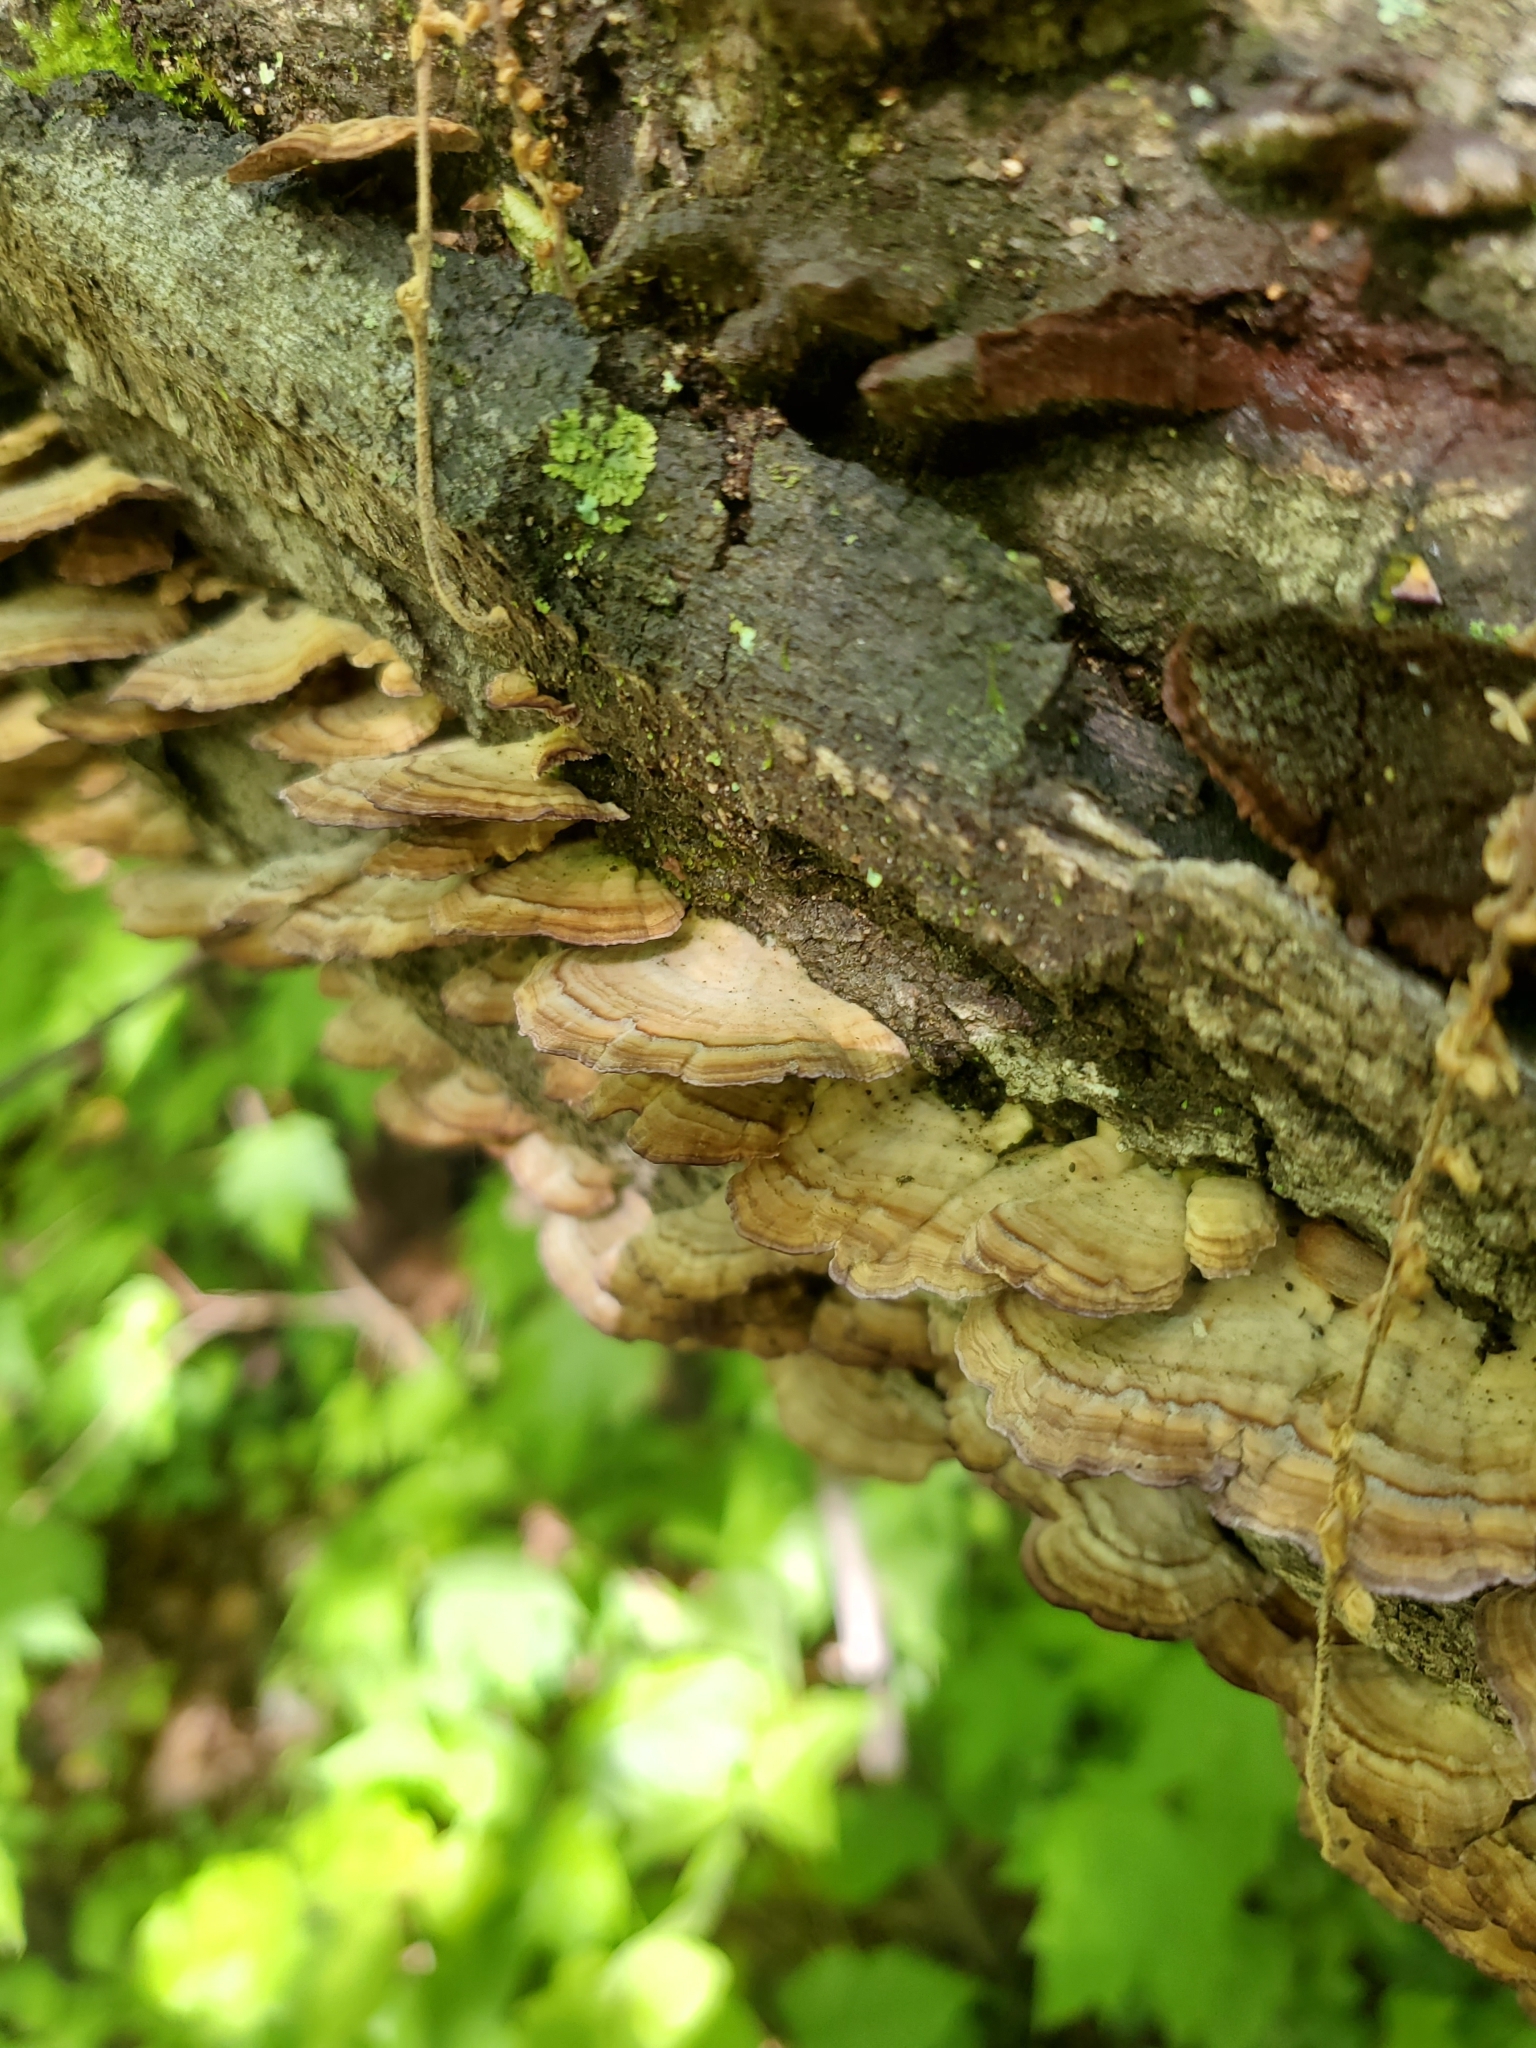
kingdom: Fungi
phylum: Basidiomycota
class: Agaricomycetes
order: Russulales
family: Stereaceae
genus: Stereum
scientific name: Stereum ostrea
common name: False turkeytail
